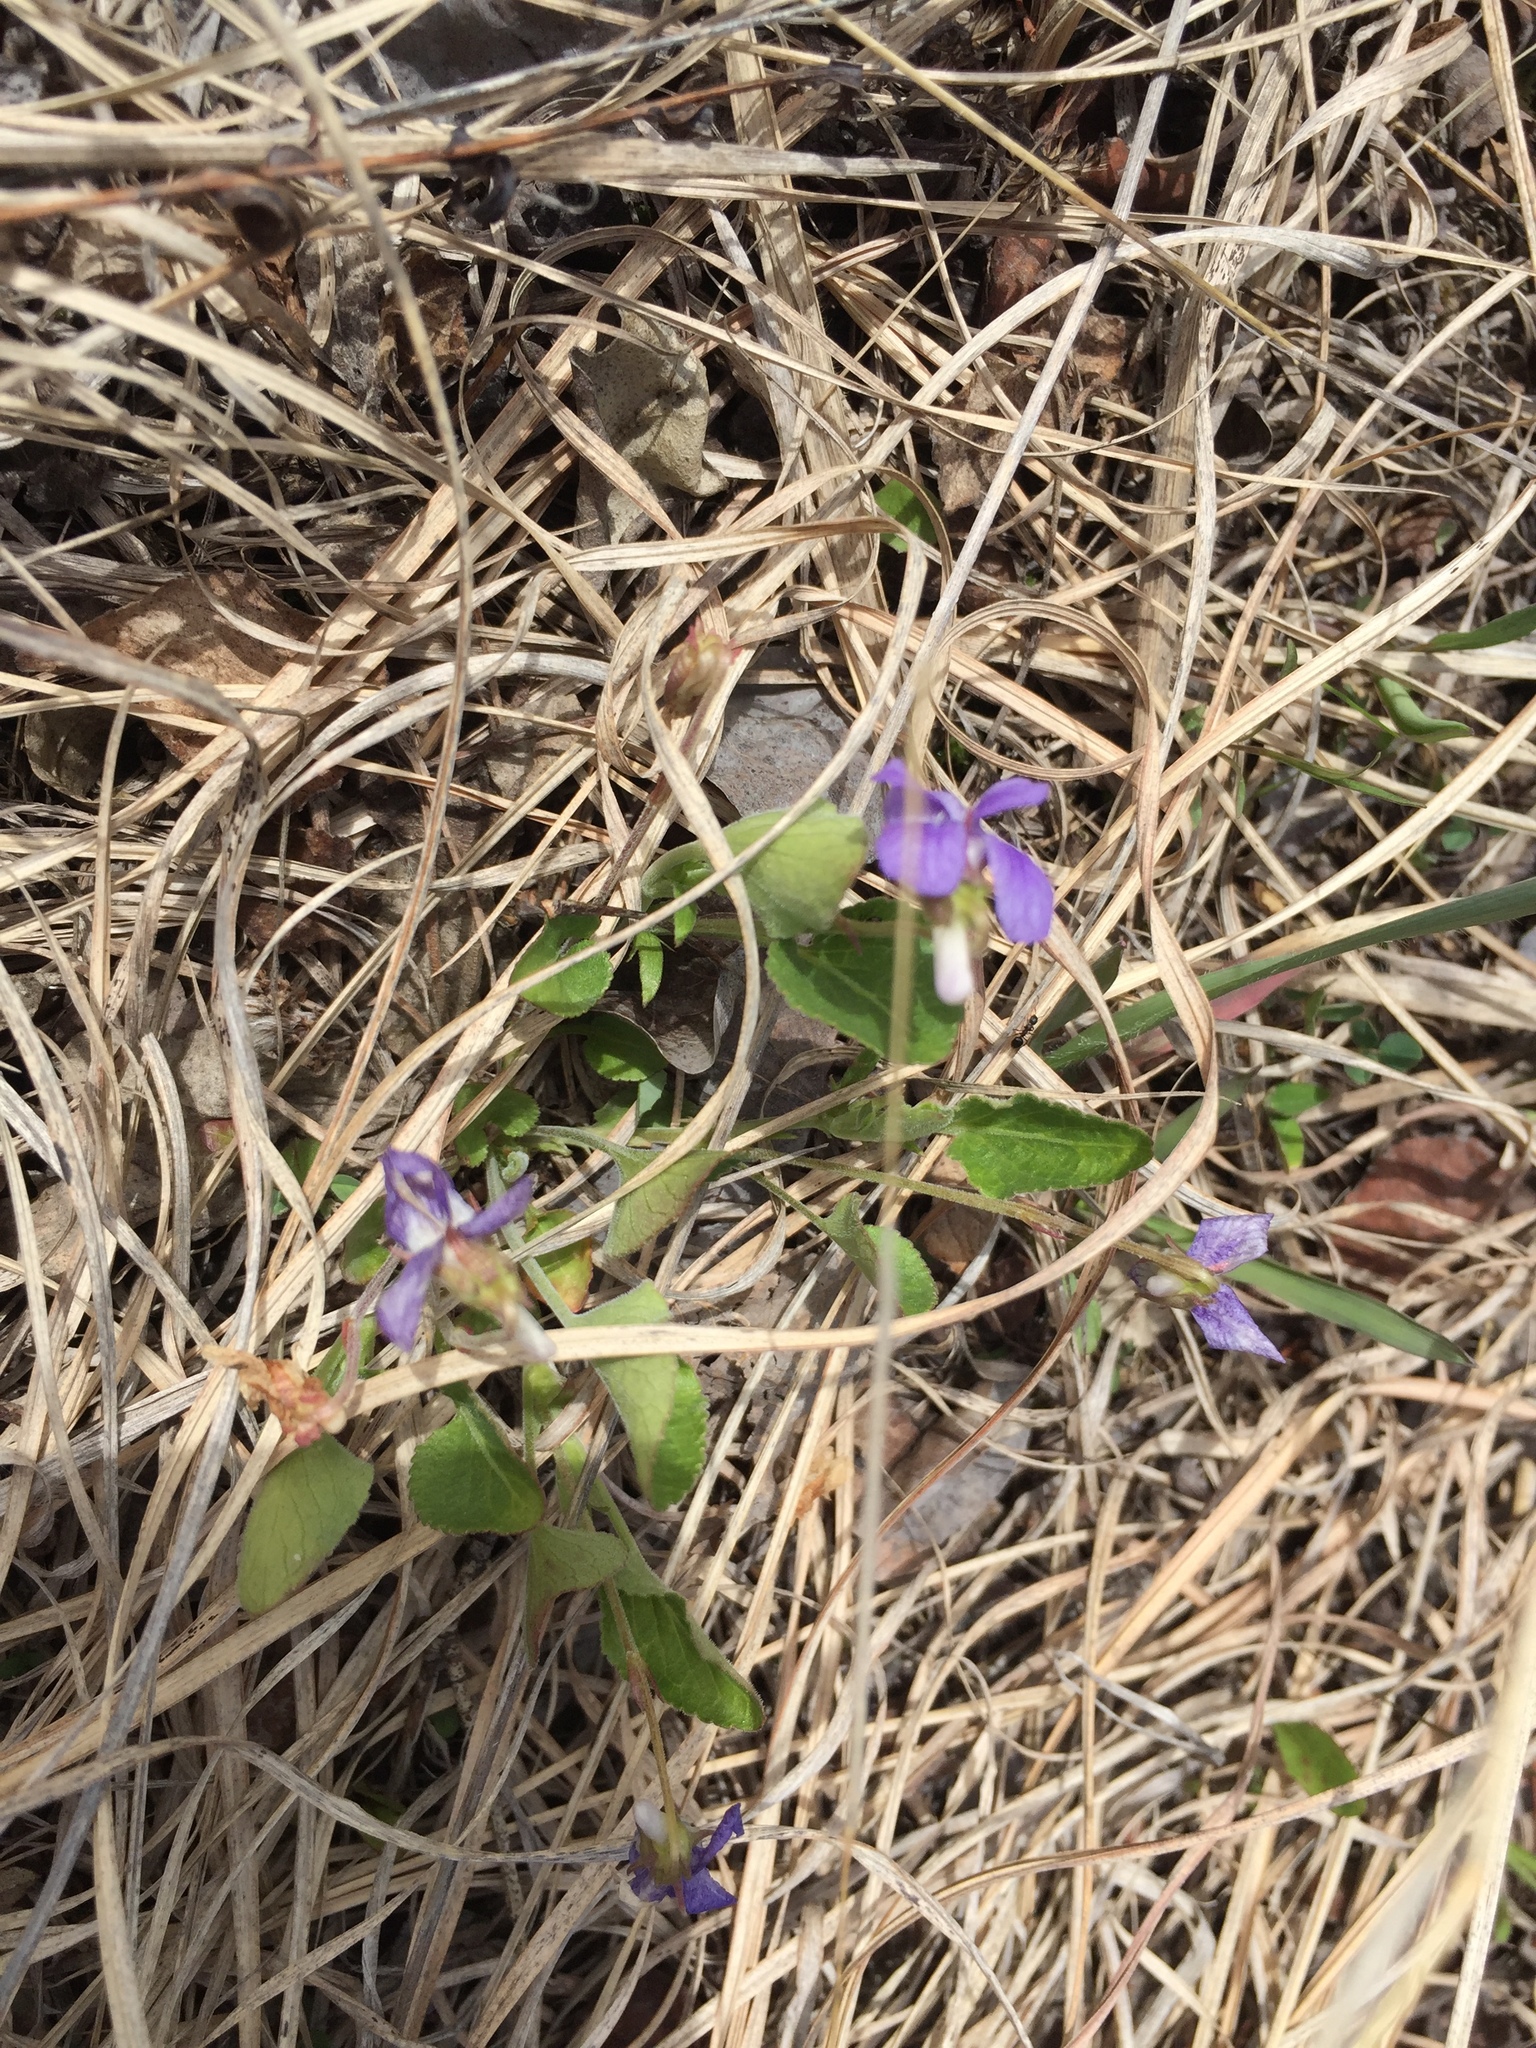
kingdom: Plantae
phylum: Tracheophyta
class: Magnoliopsida
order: Malpighiales
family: Violaceae
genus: Viola
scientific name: Viola adunca
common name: Sand violet
